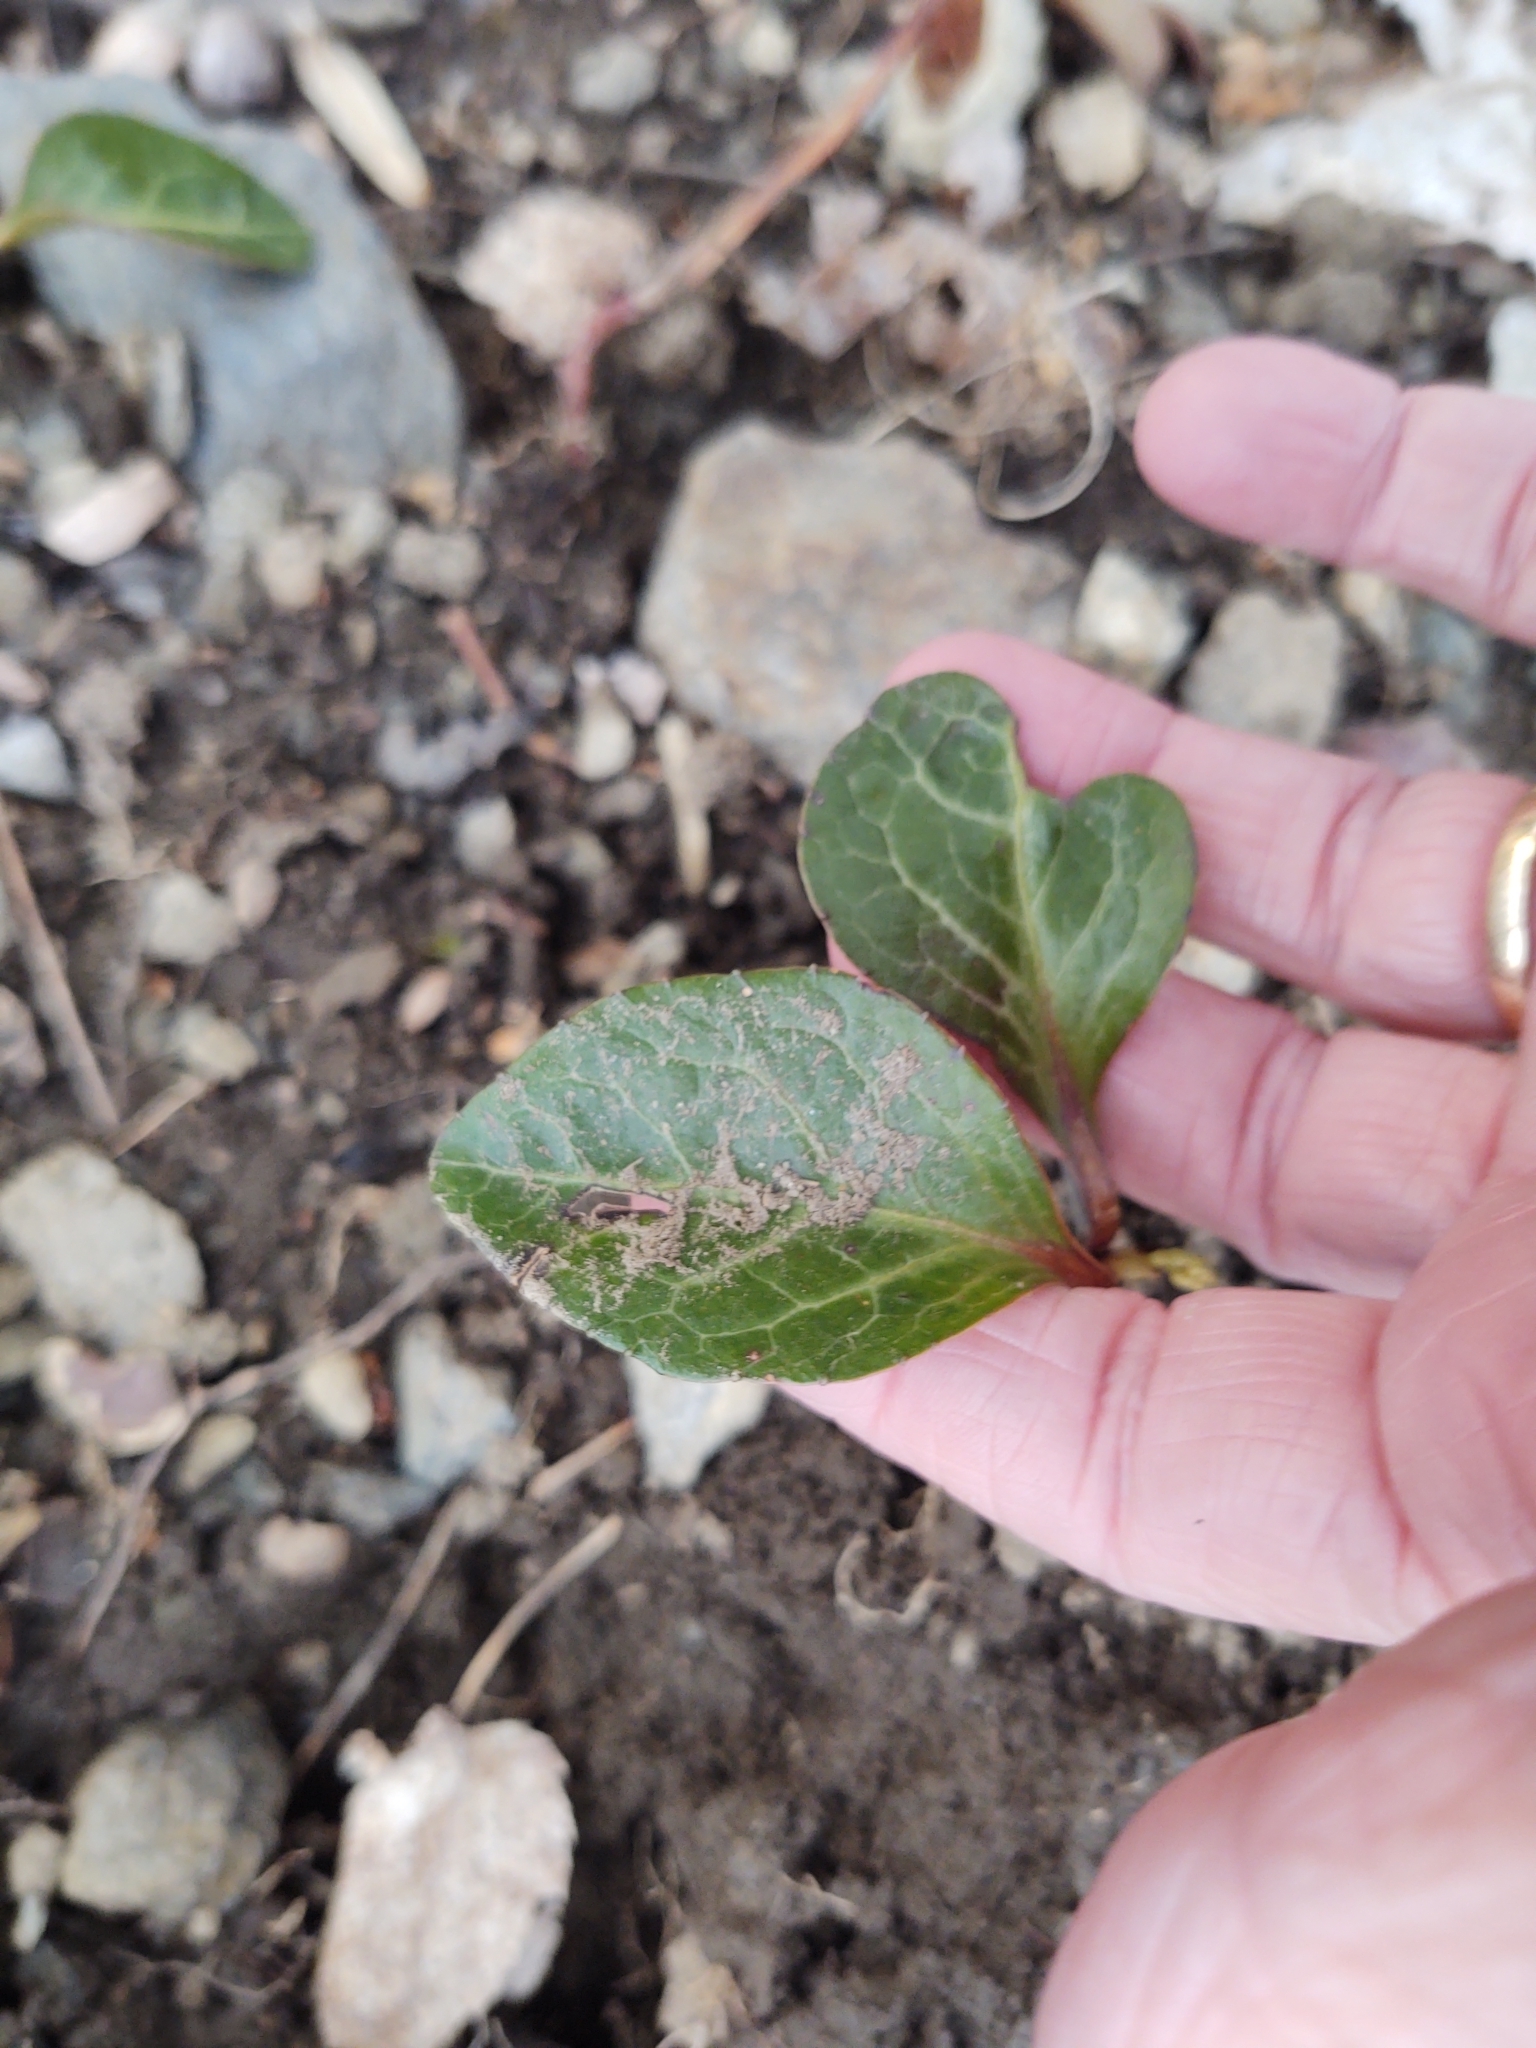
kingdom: Plantae
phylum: Tracheophyta
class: Magnoliopsida
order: Ericales
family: Ericaceae
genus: Pyrola
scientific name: Pyrola americana
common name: American wintergreen
